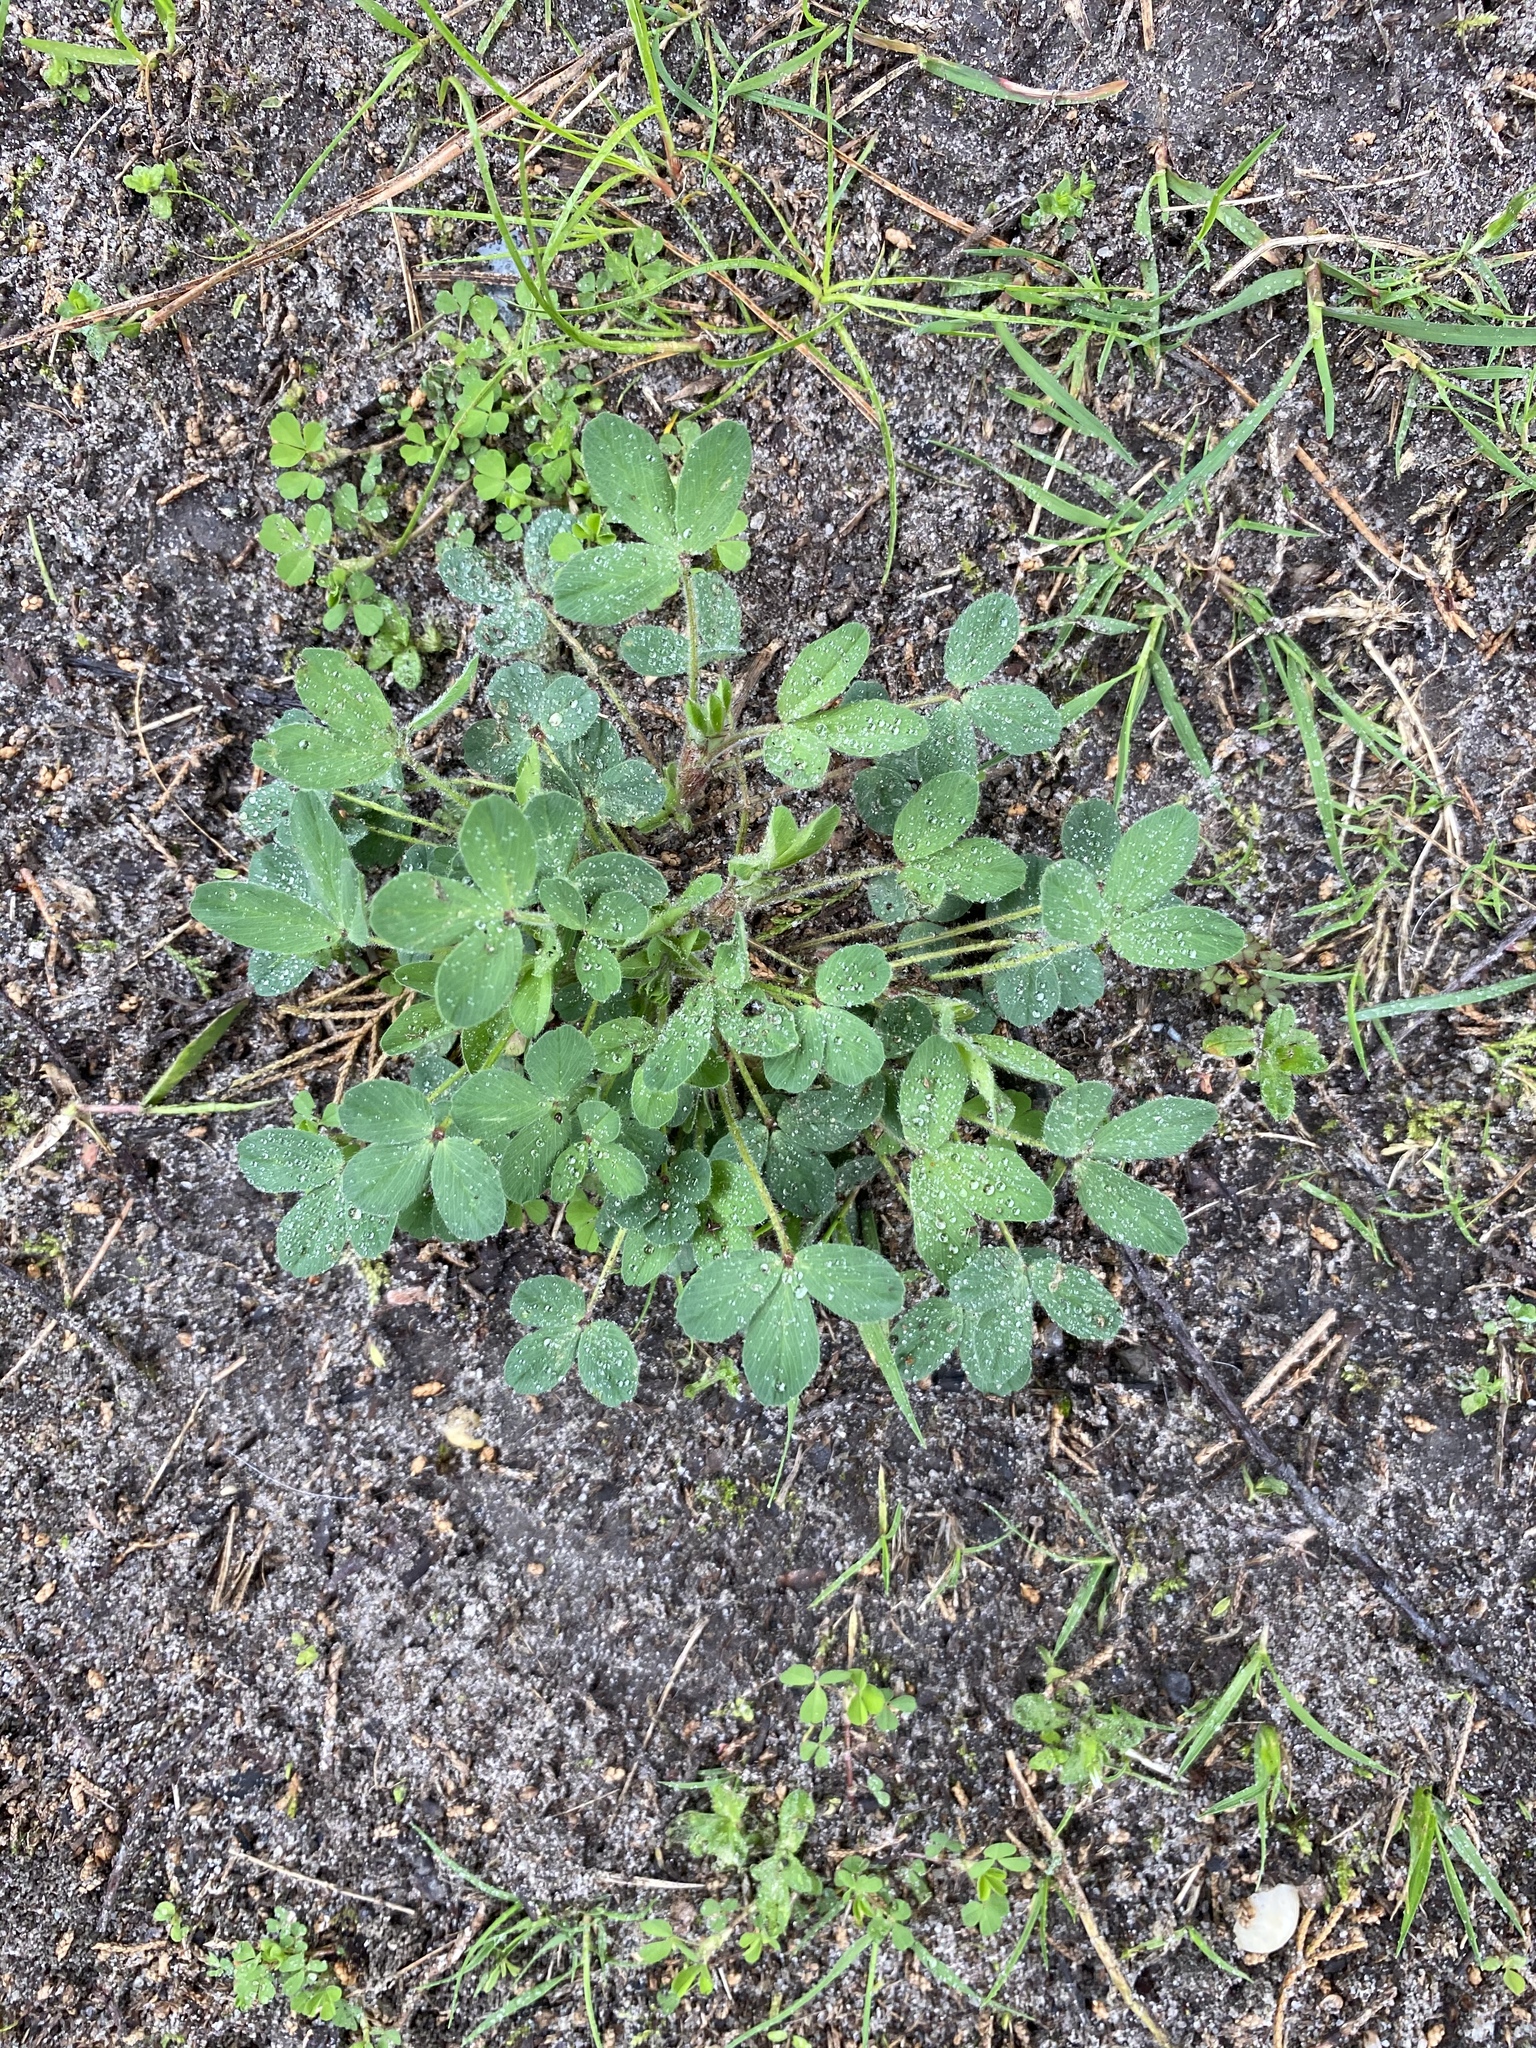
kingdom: Plantae
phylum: Tracheophyta
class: Magnoliopsida
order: Fabales
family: Fabaceae
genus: Medicago
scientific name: Medicago lupulina
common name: Black medick
